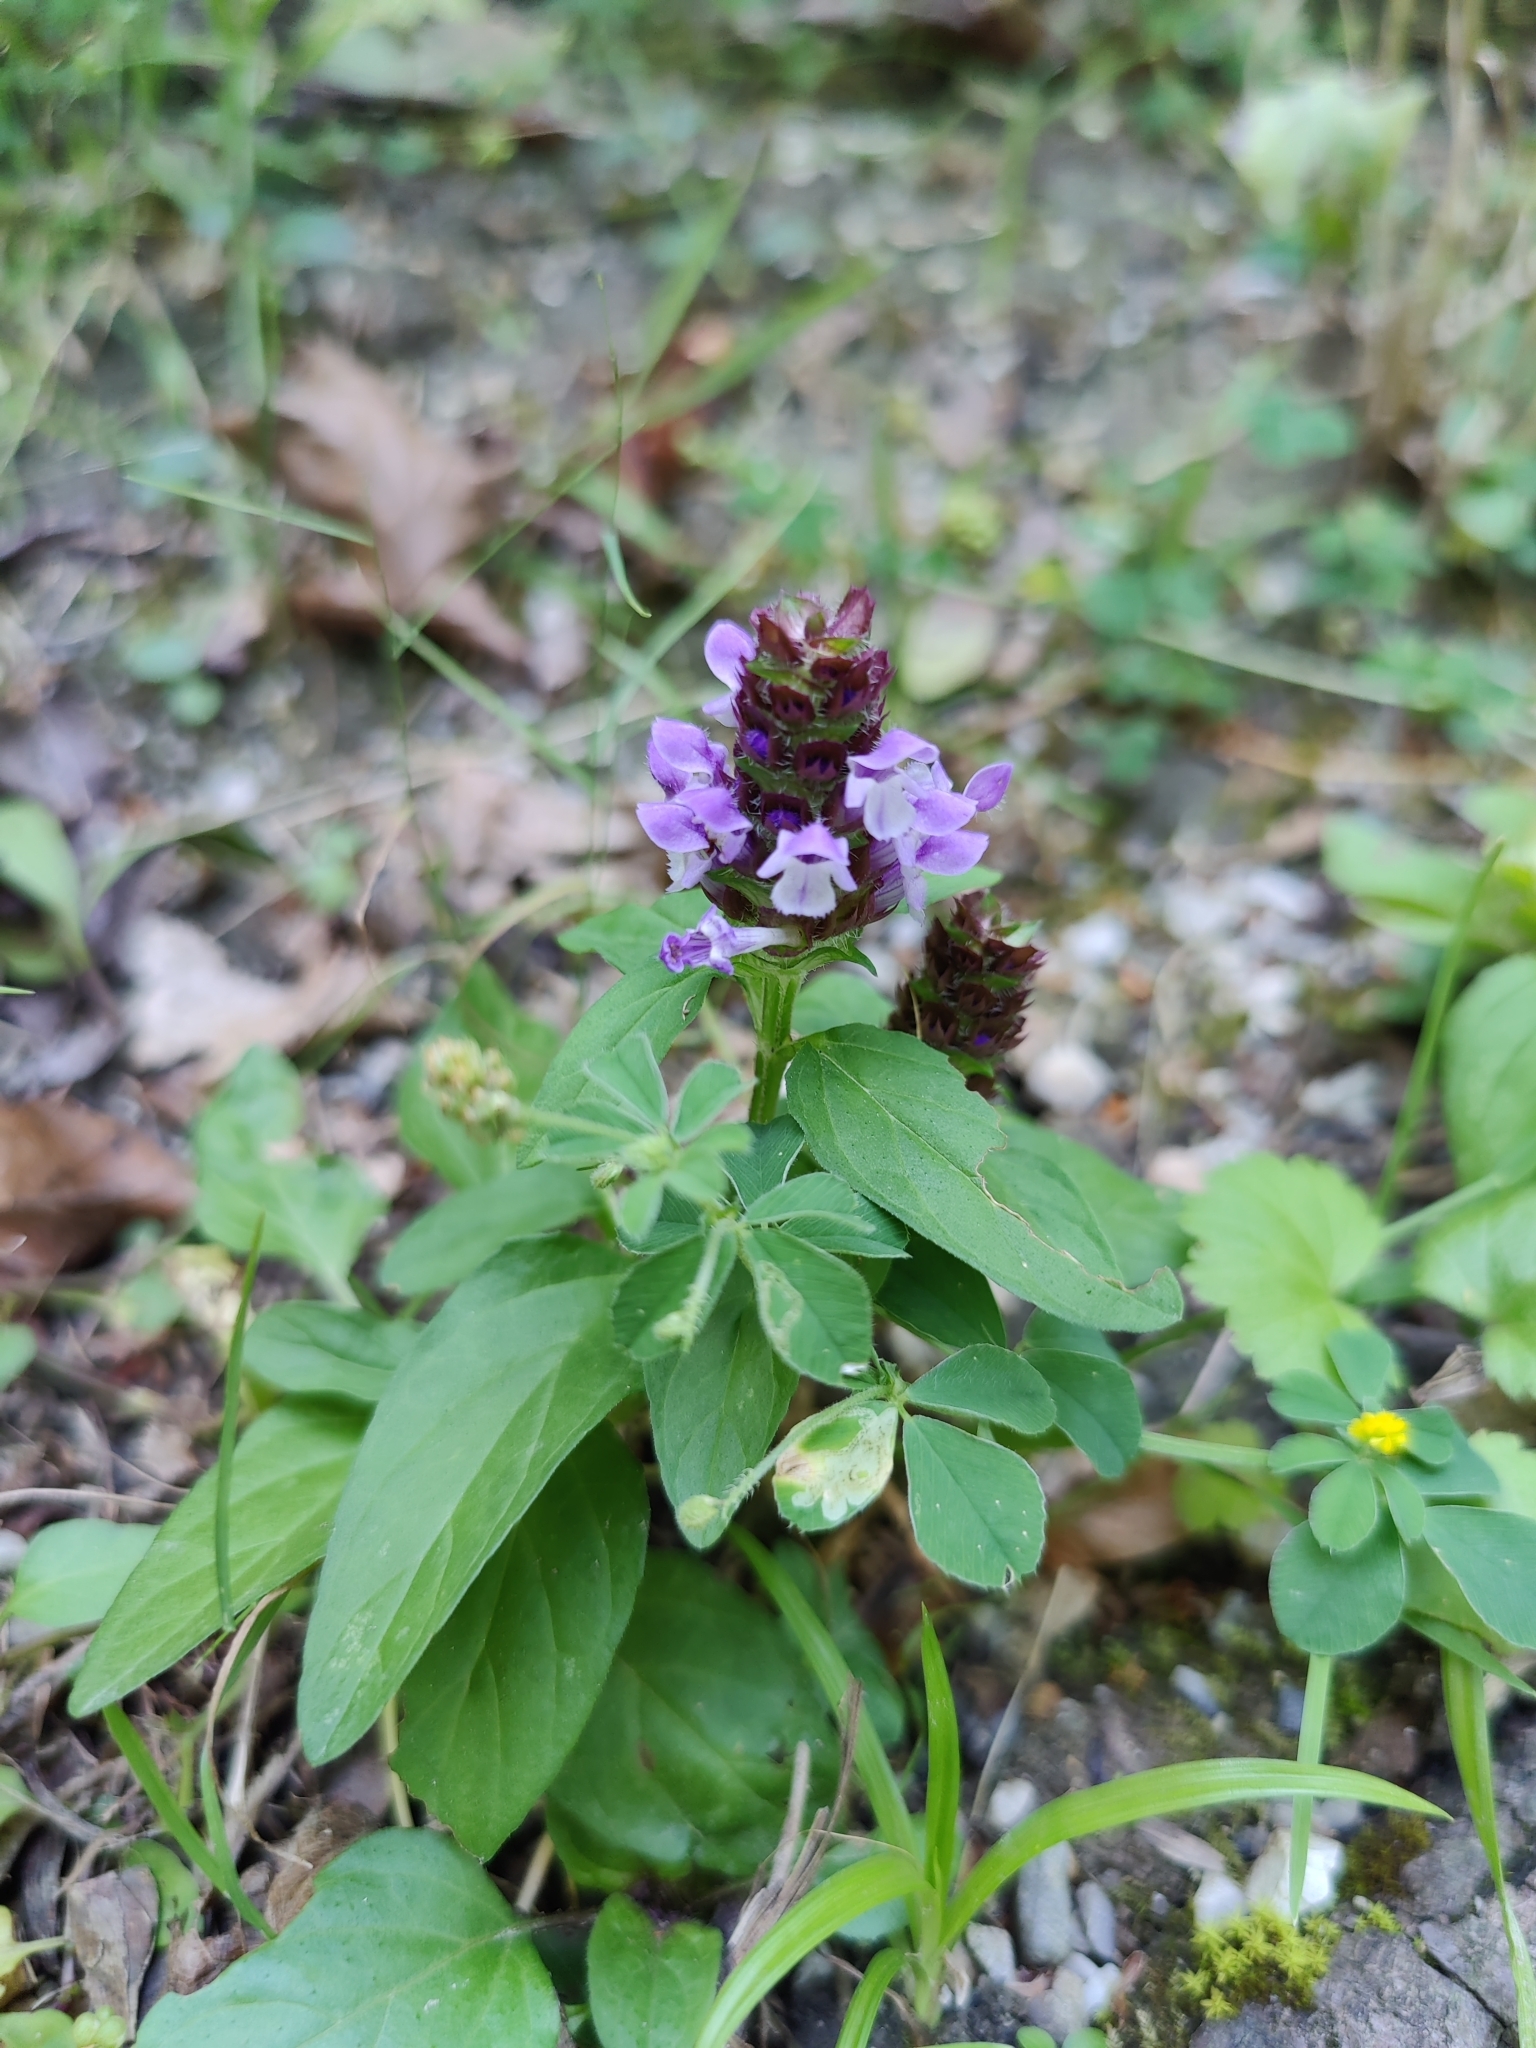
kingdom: Plantae
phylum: Tracheophyta
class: Magnoliopsida
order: Lamiales
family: Lamiaceae
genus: Prunella
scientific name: Prunella vulgaris
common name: Heal-all
